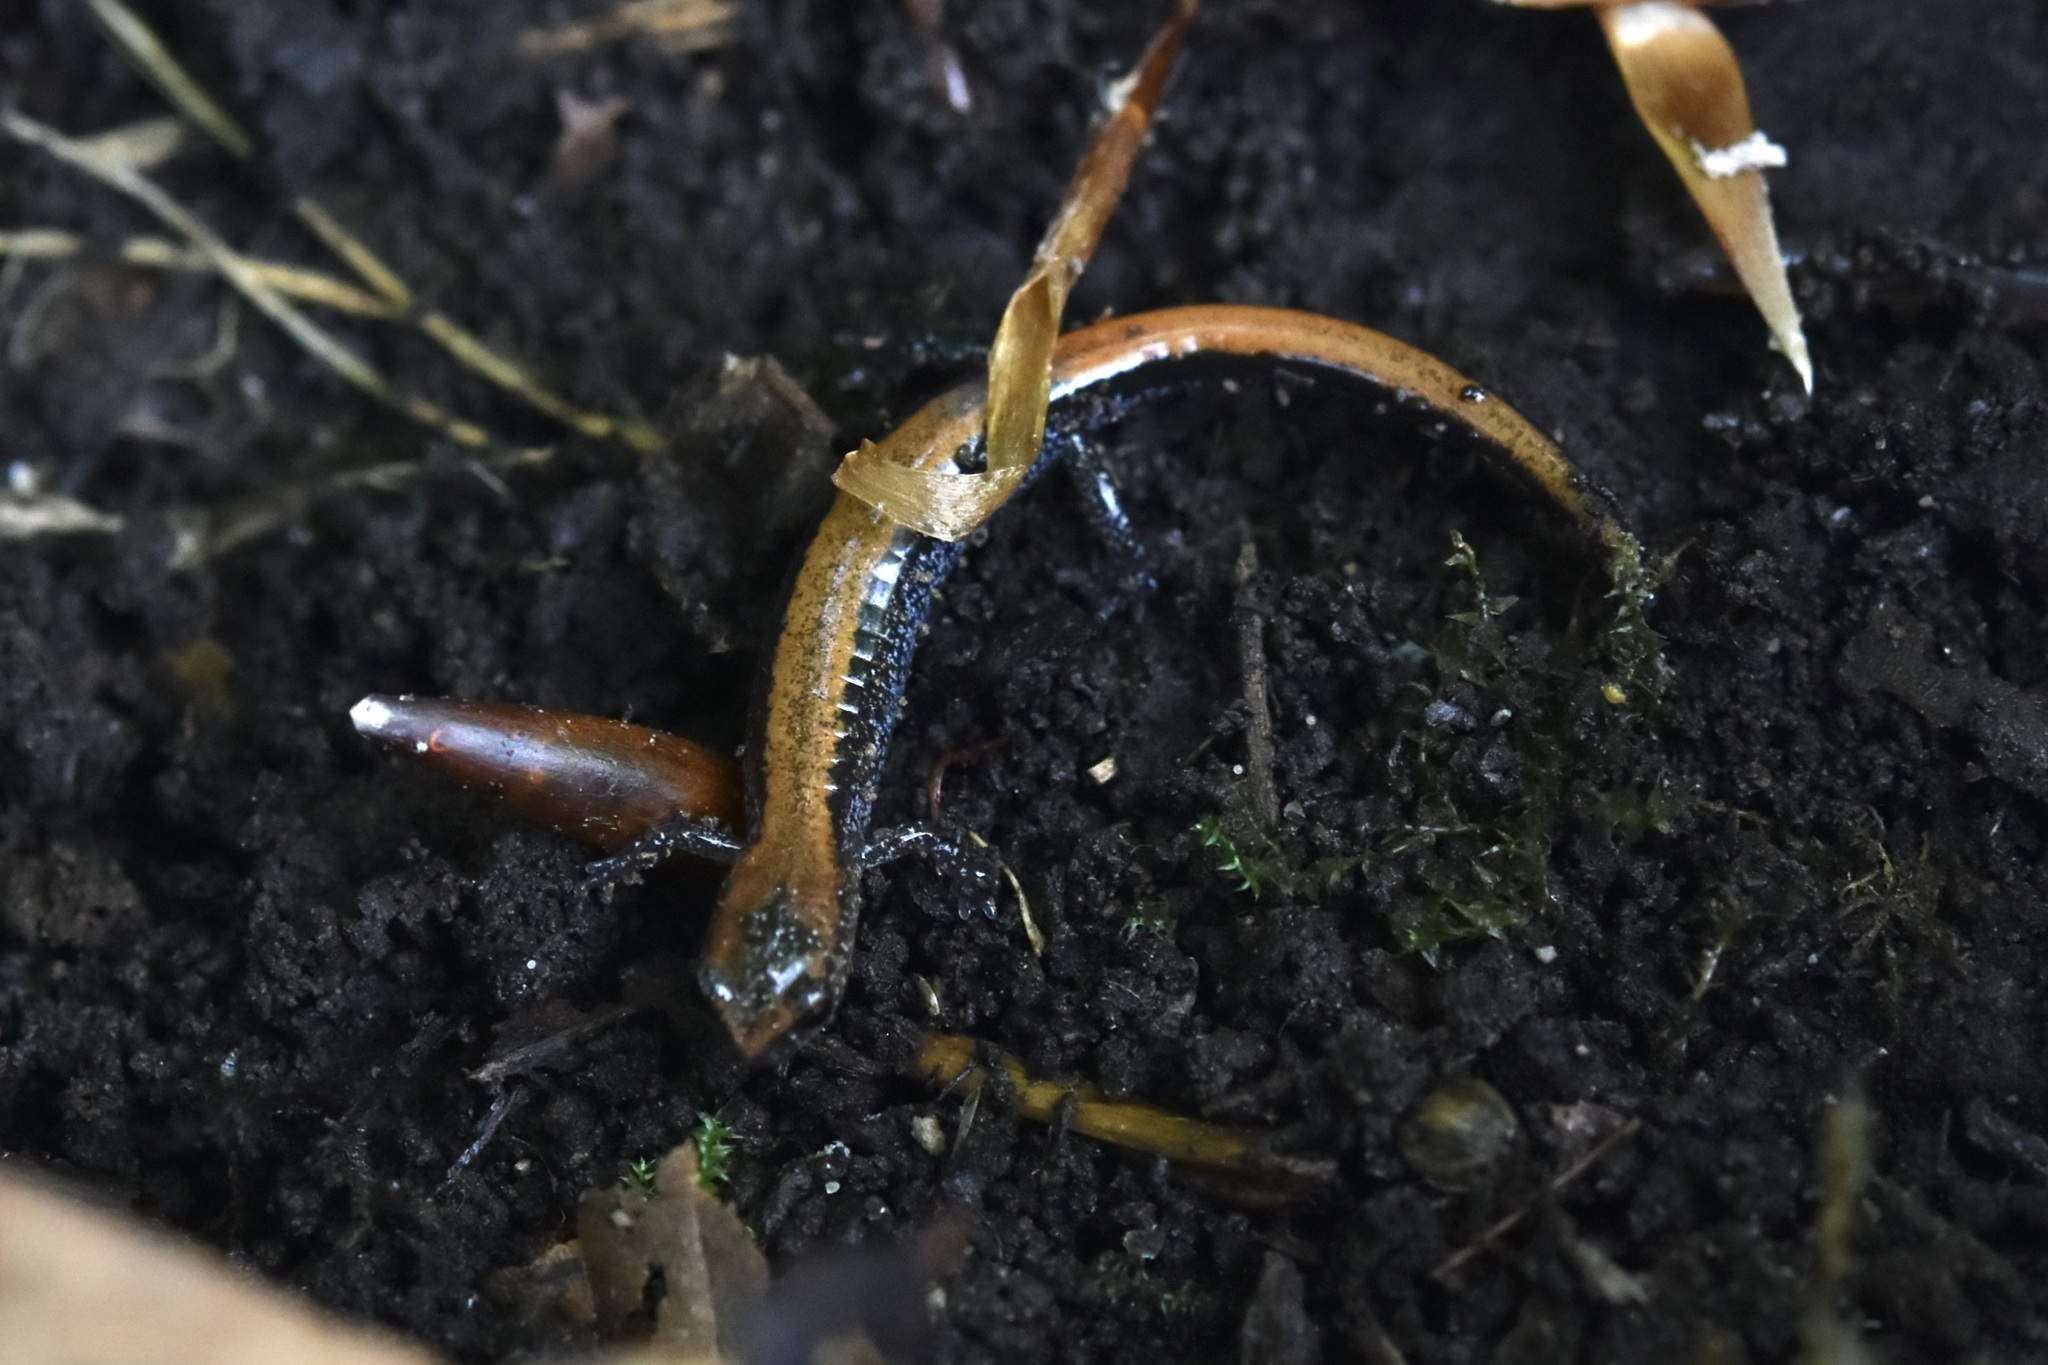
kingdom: Animalia
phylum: Chordata
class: Amphibia
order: Caudata
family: Plethodontidae
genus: Plethodon
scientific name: Plethodon cinereus
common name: Redback salamander
